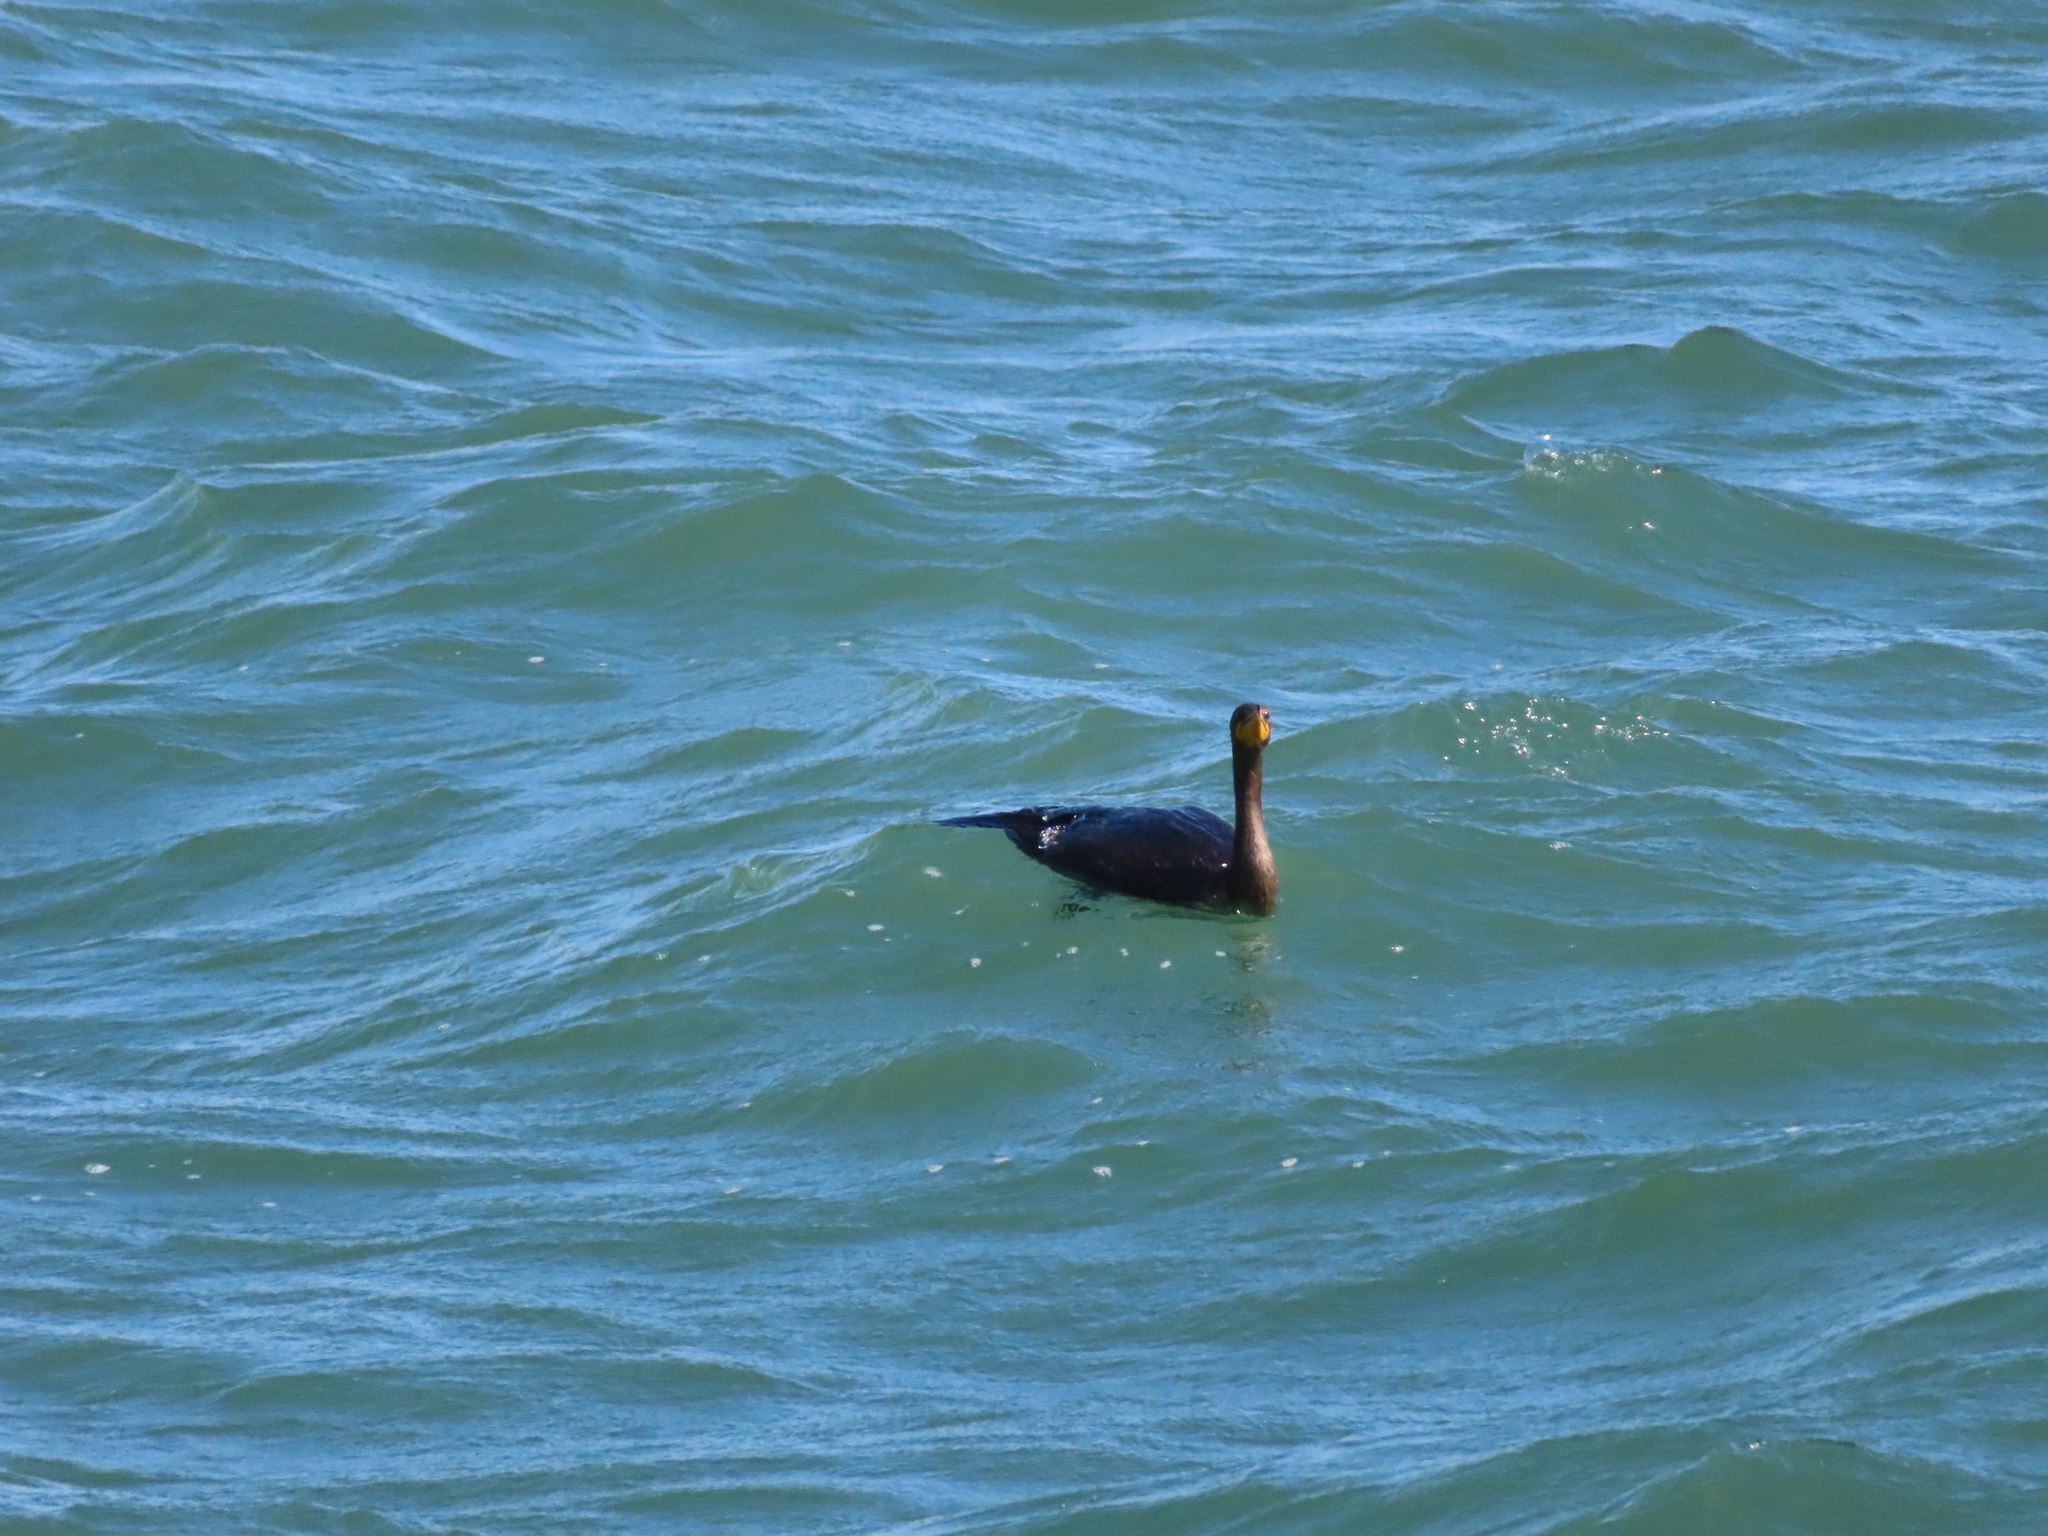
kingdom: Animalia
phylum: Chordata
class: Aves
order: Suliformes
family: Phalacrocoracidae
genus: Phalacrocorax
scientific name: Phalacrocorax auritus
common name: Double-crested cormorant
